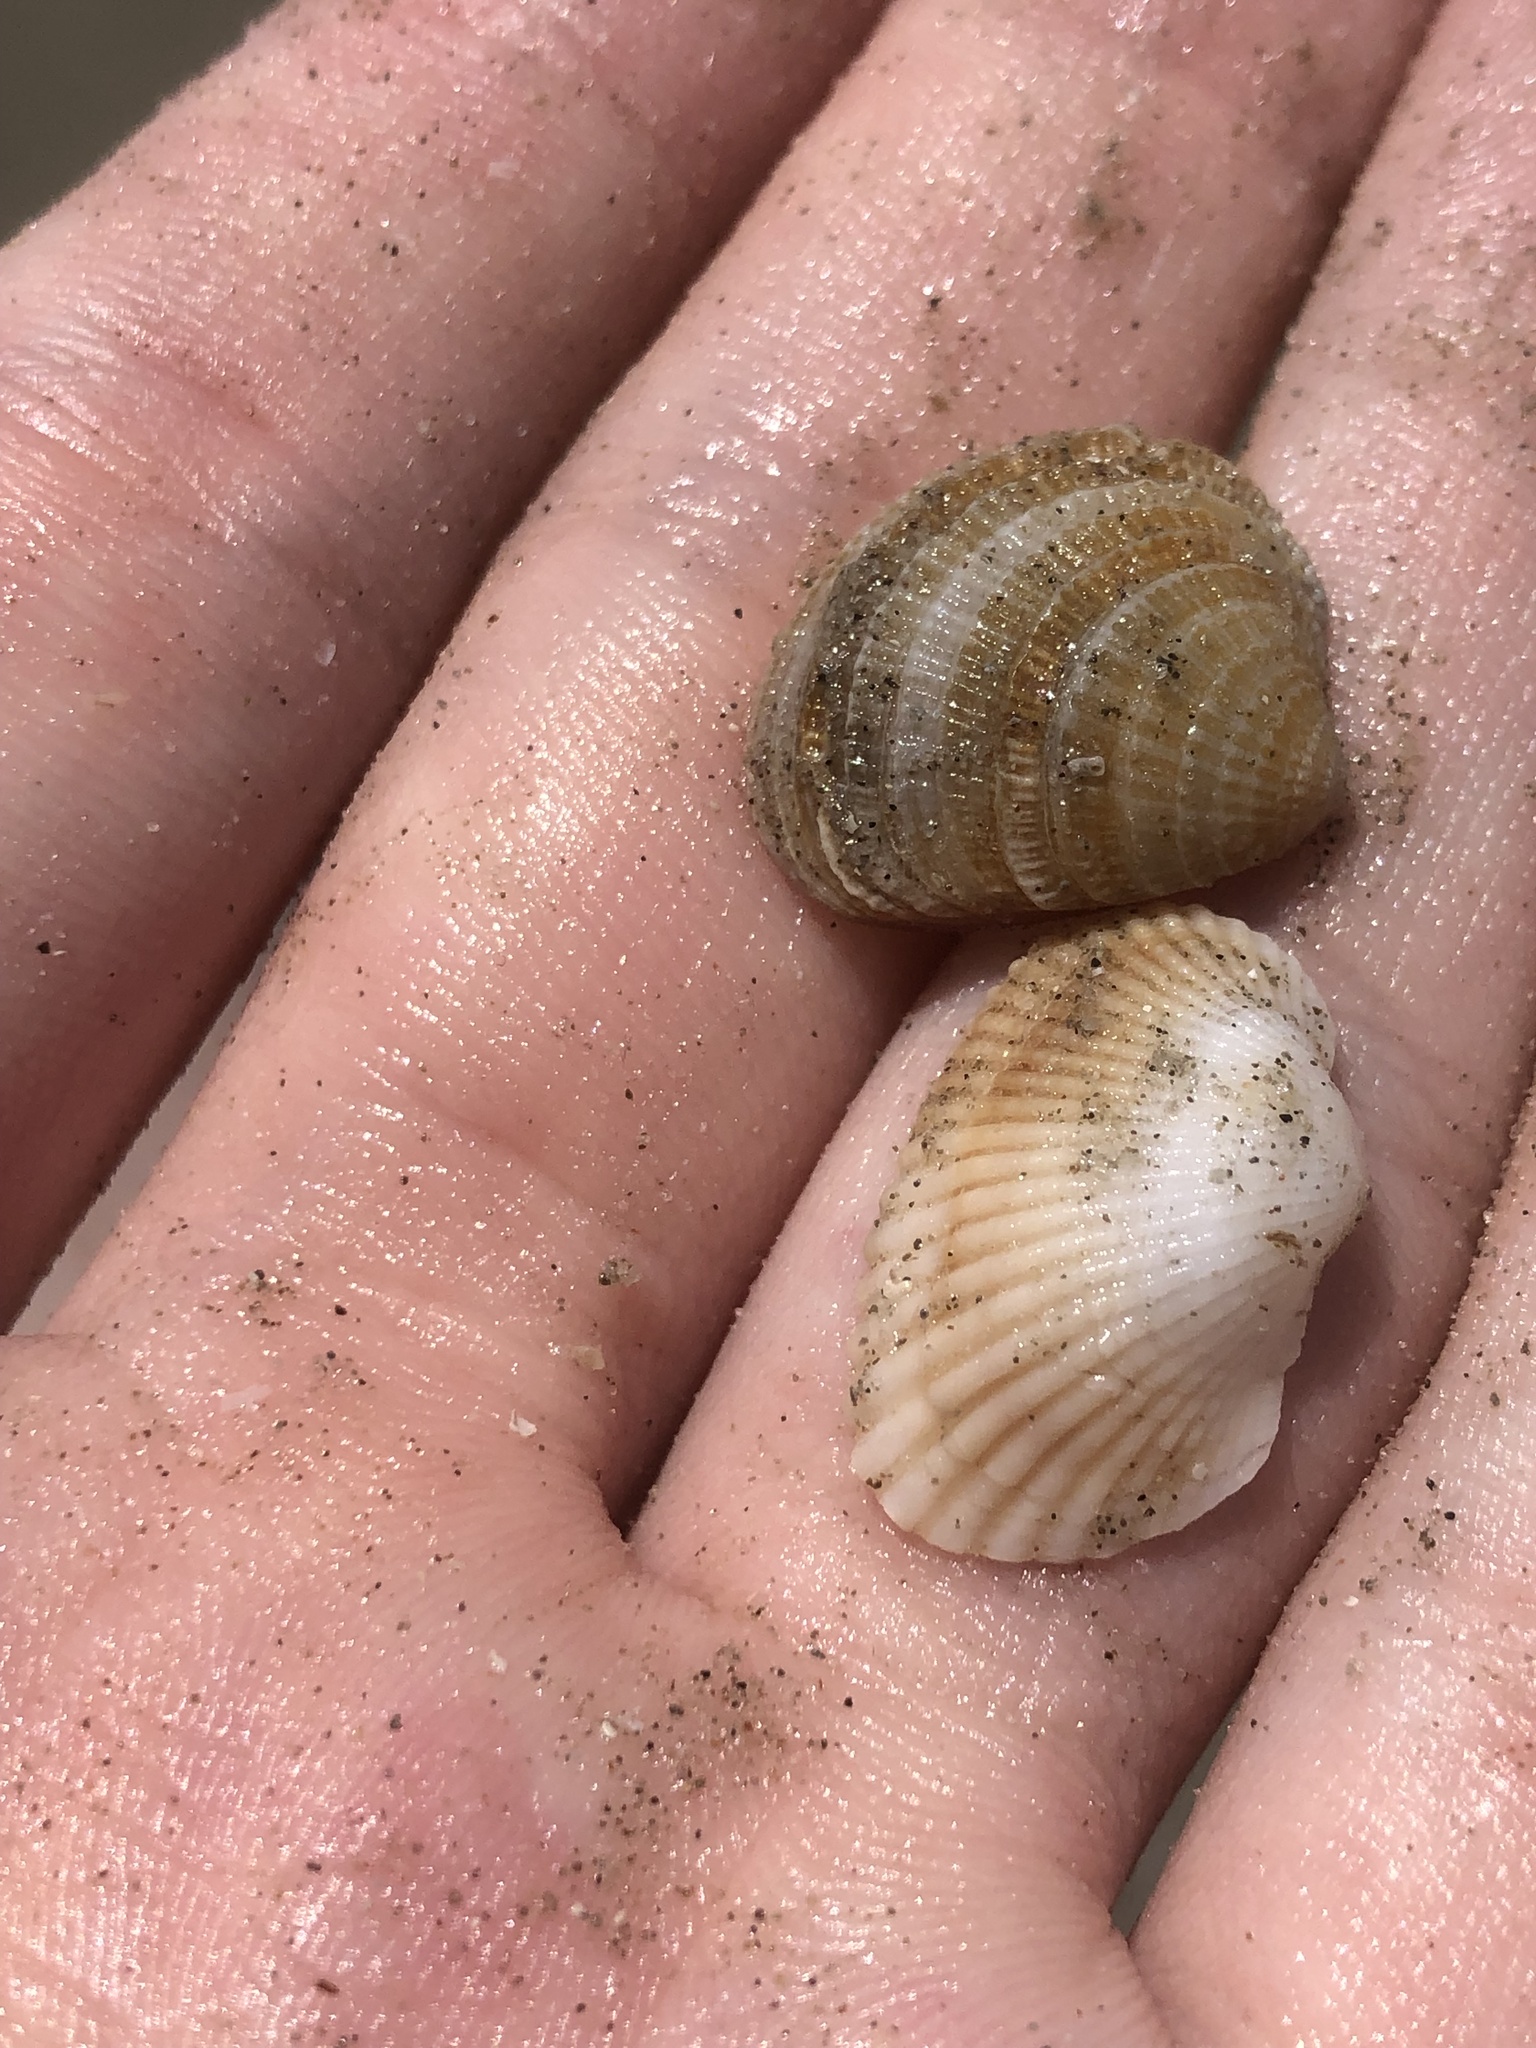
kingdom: Animalia
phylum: Mollusca
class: Bivalvia
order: Venerida
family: Veneridae
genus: Chione
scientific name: Chione elevata
